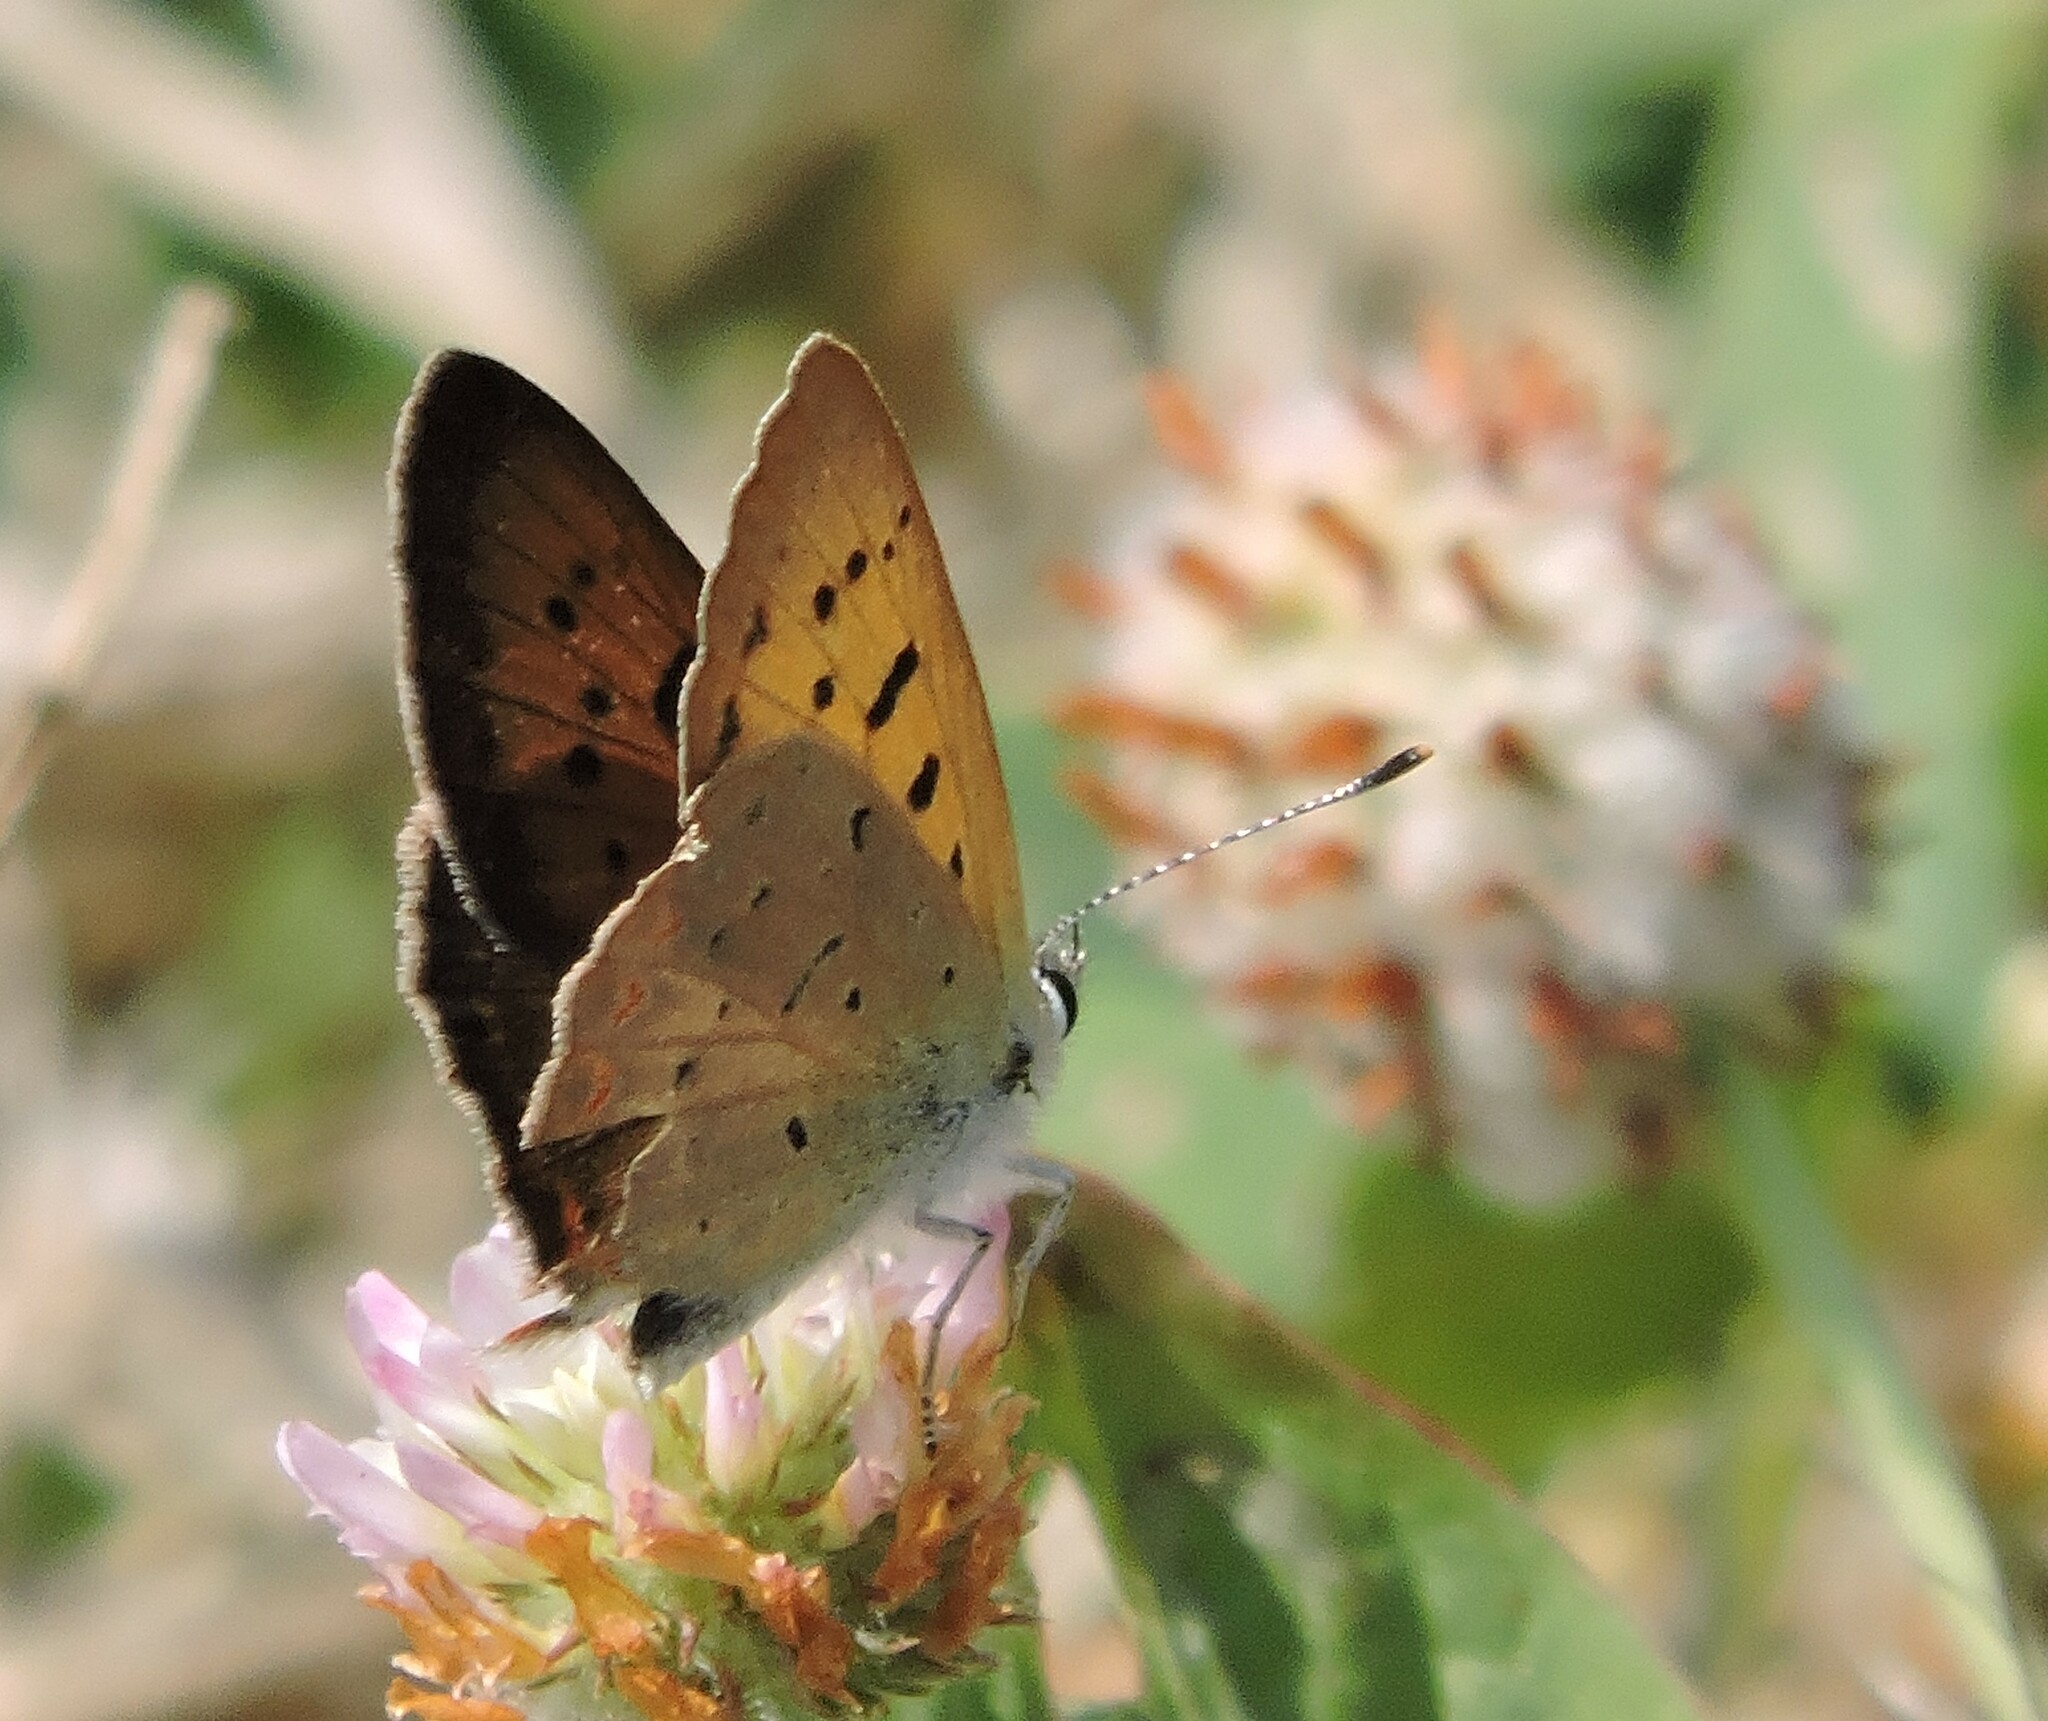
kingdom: Animalia
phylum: Arthropoda
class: Insecta
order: Lepidoptera
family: Lycaenidae
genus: Tharsalea
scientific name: Tharsalea helloides
